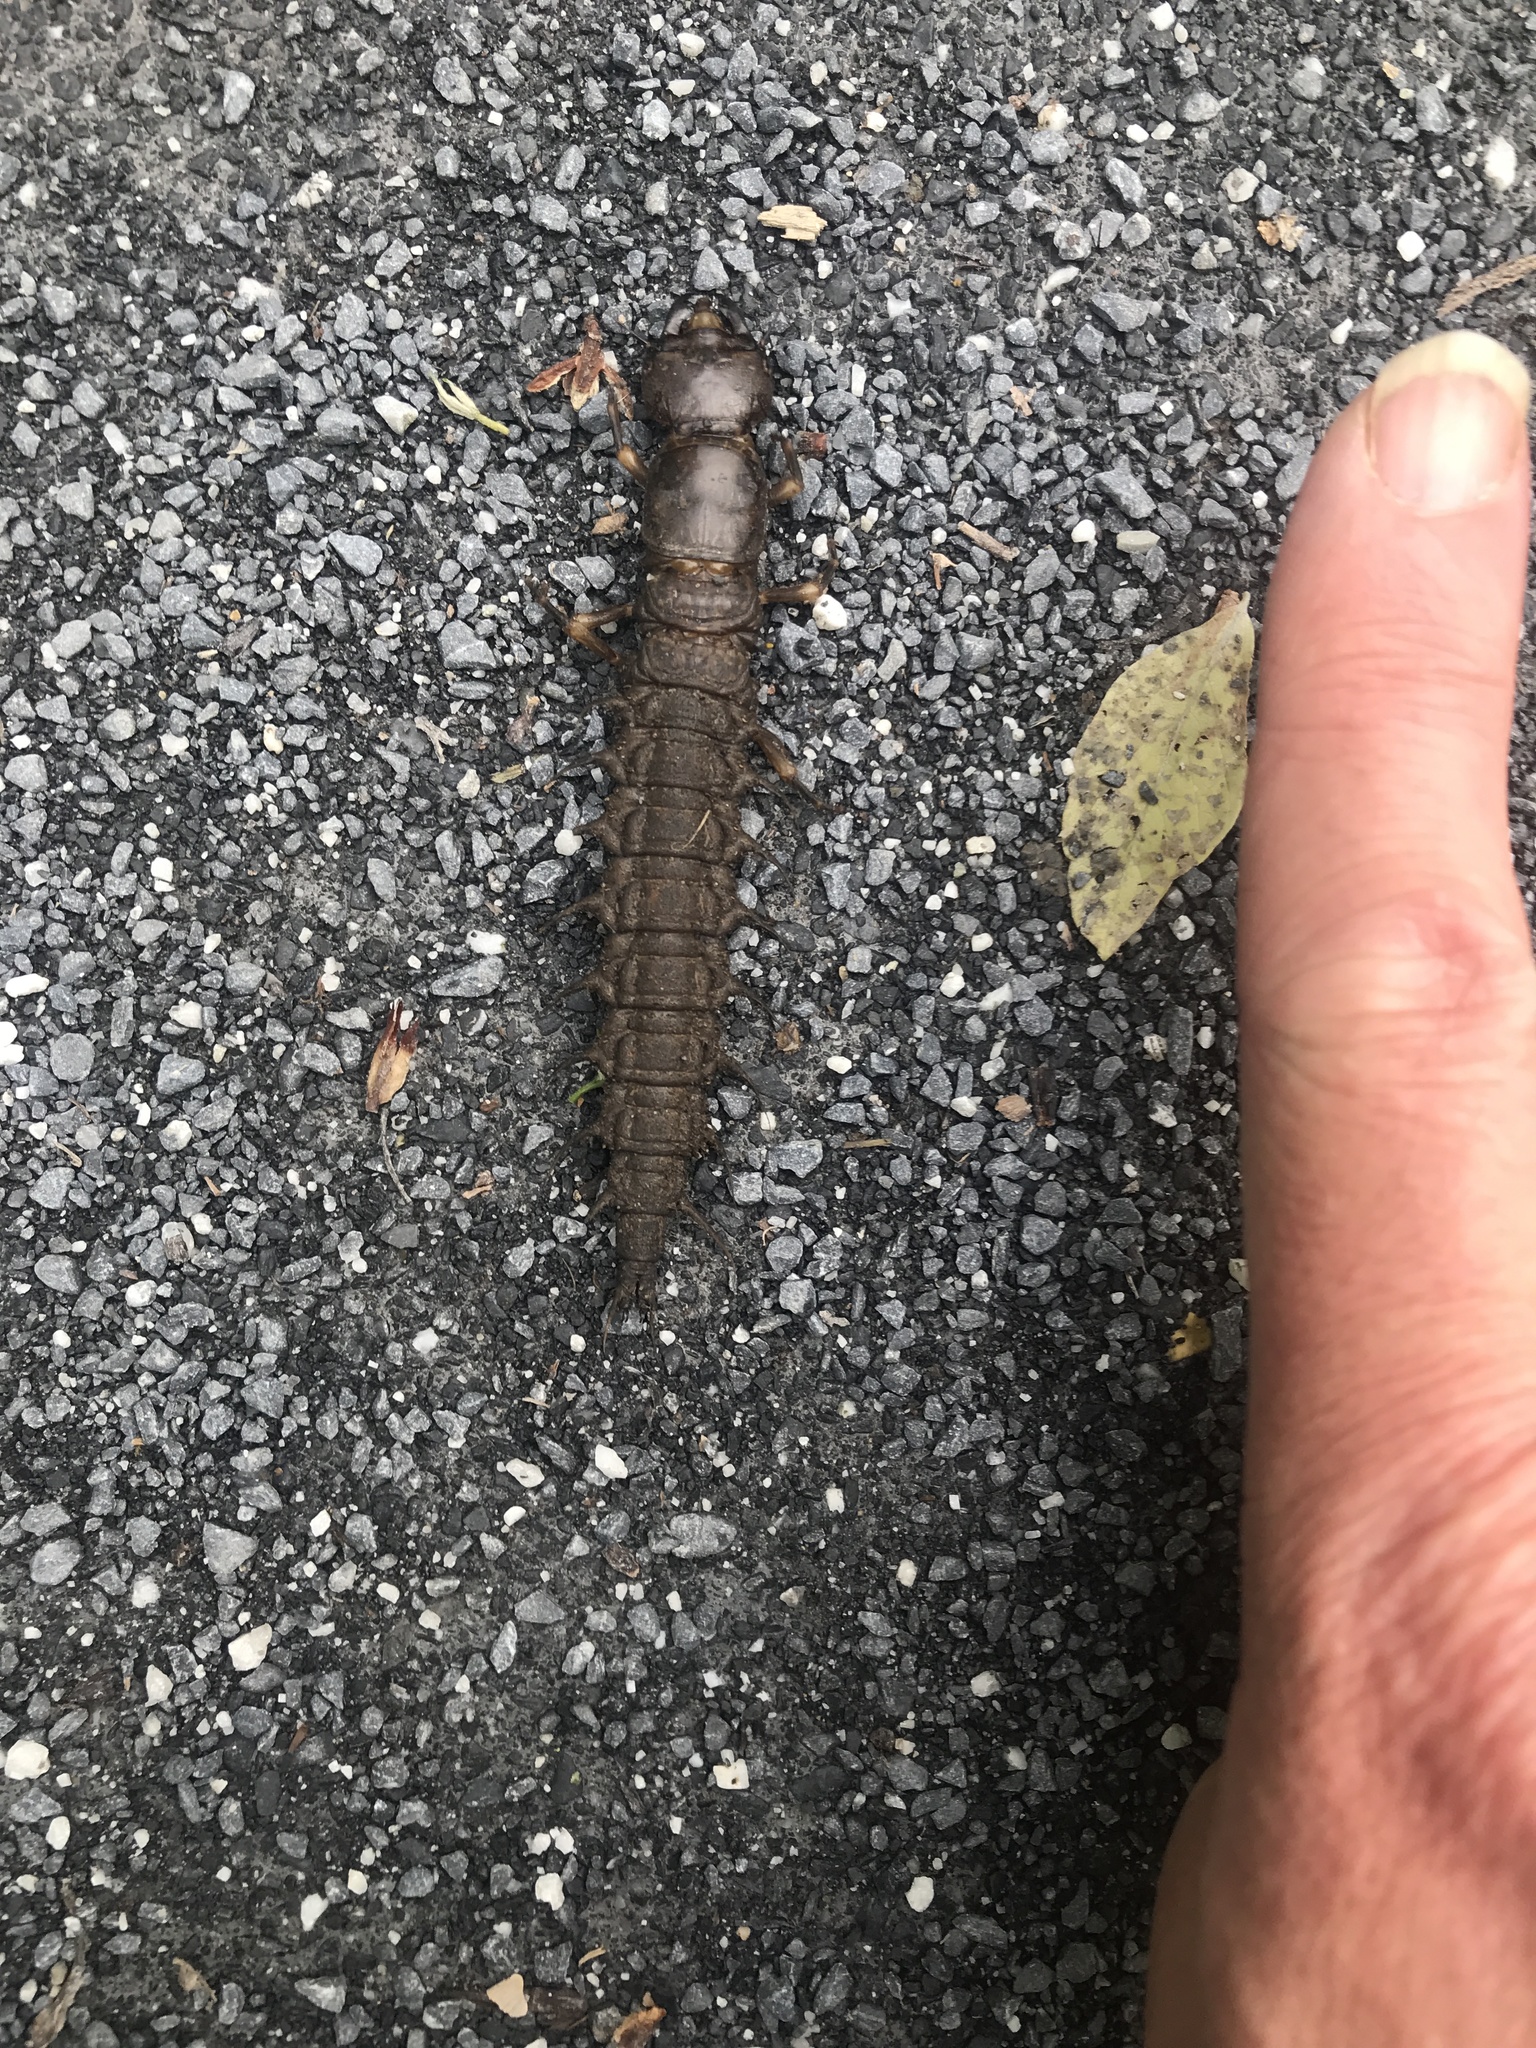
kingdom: Animalia
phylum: Arthropoda
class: Insecta
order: Megaloptera
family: Corydalidae
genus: Corydalus
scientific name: Corydalus cornutus
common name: Dobsonfly
